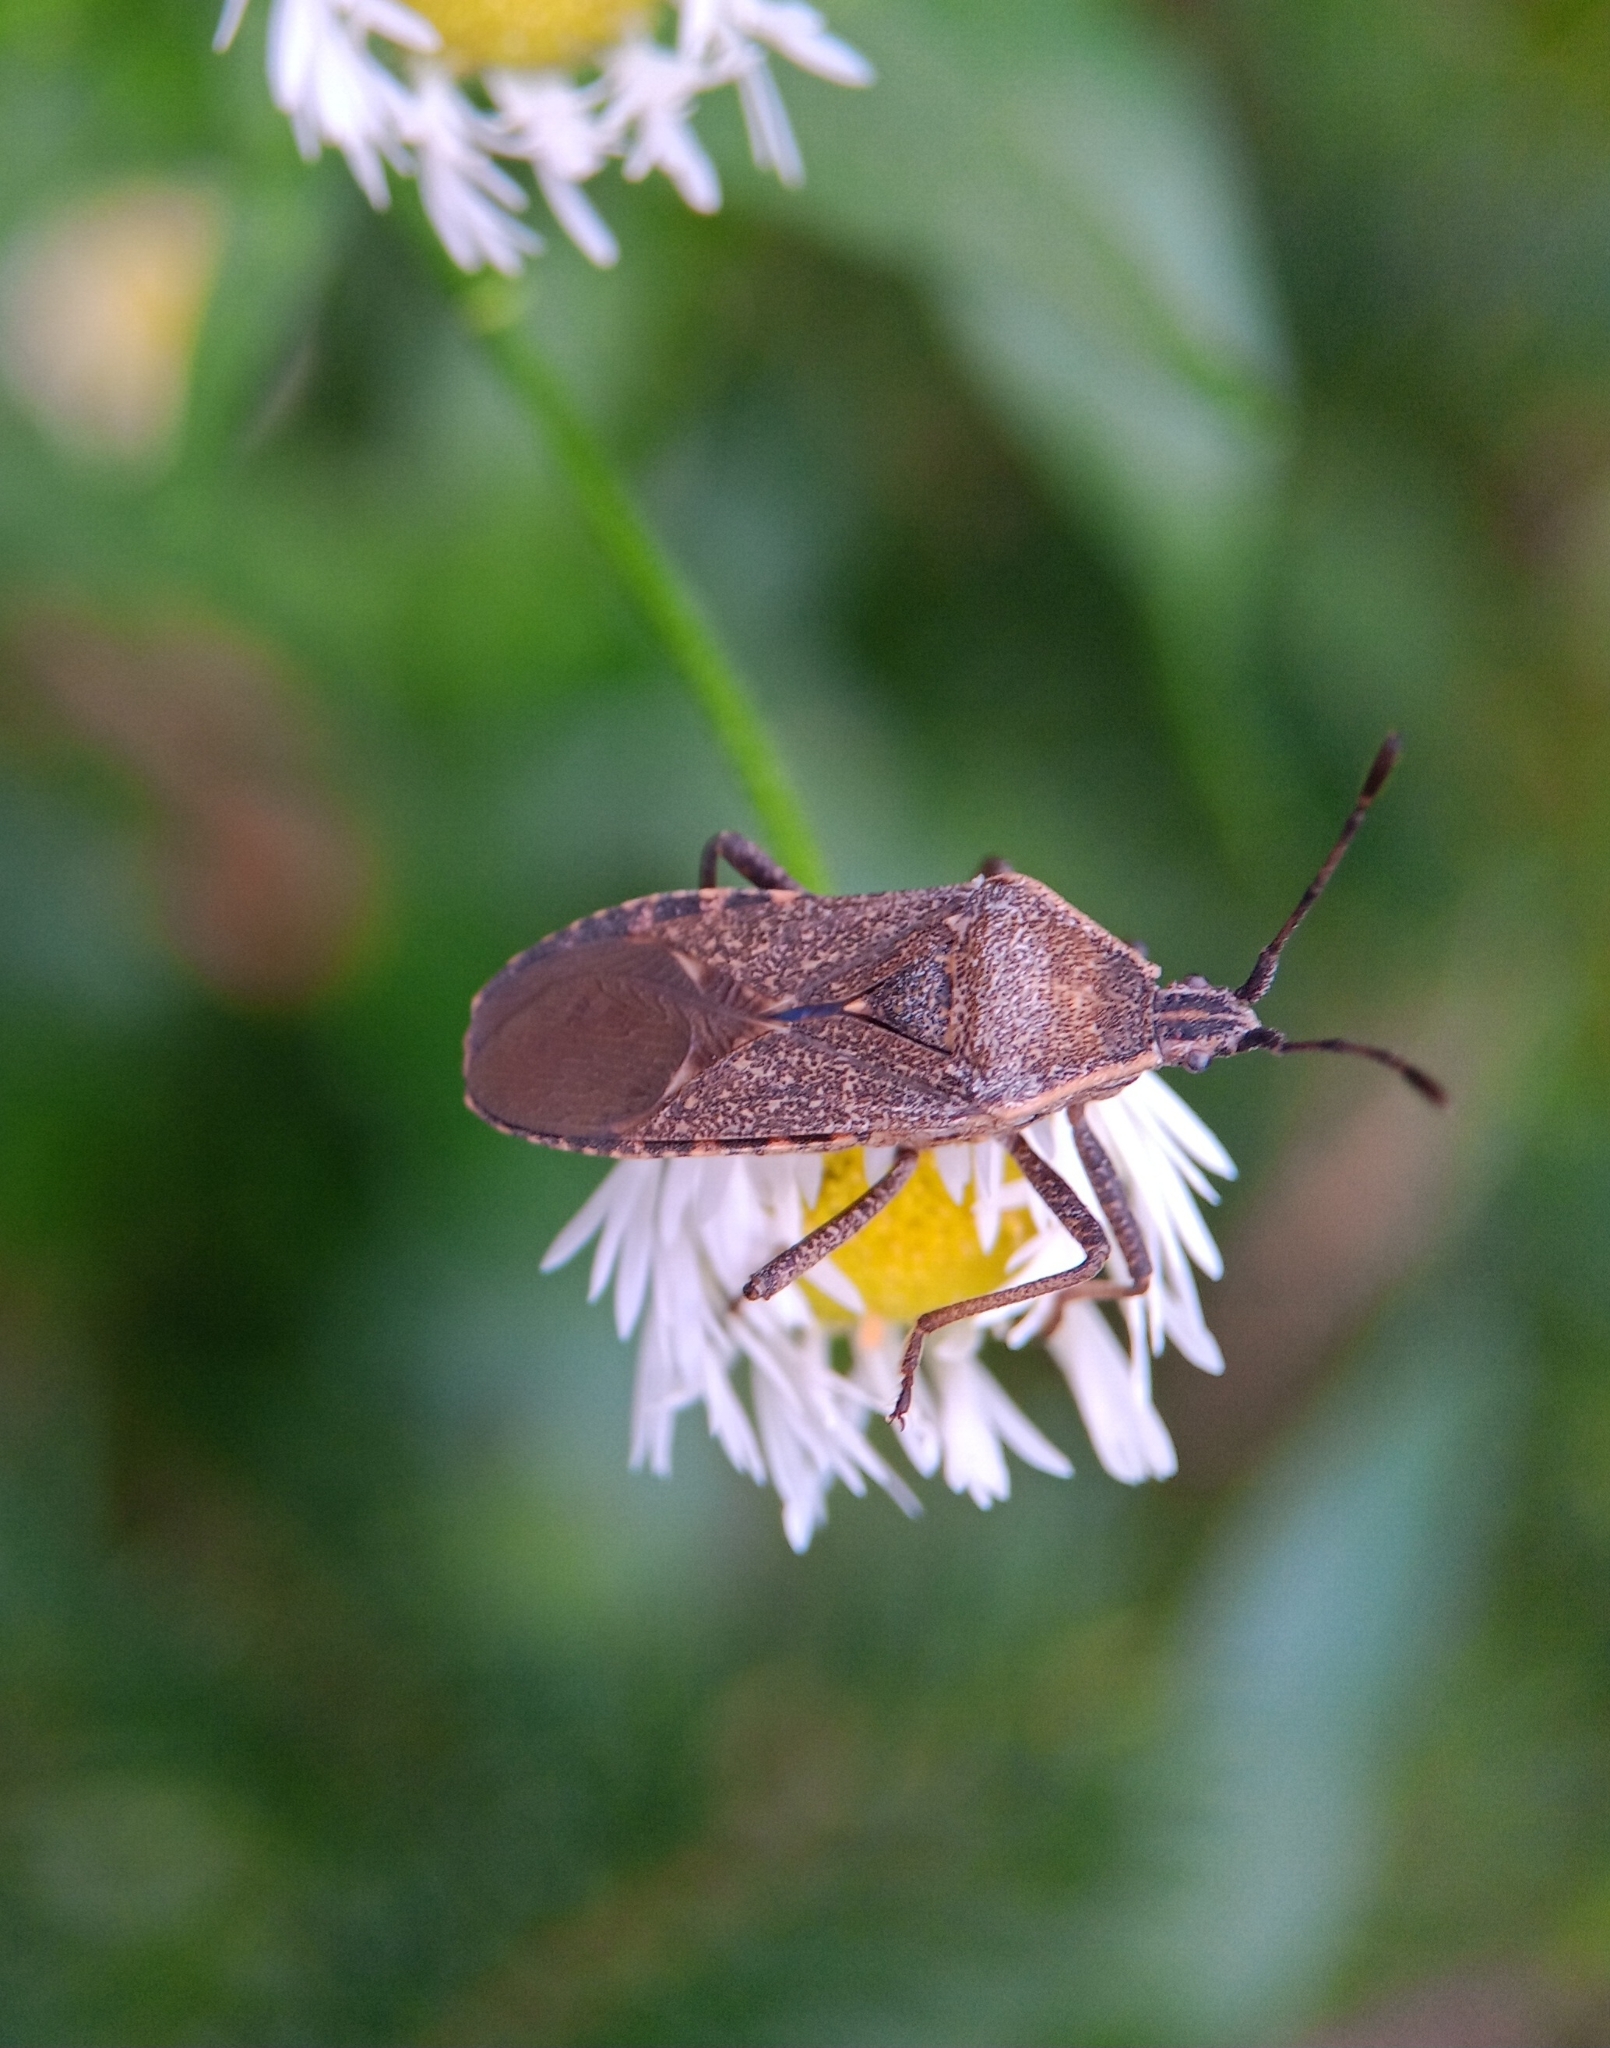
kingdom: Animalia
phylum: Arthropoda
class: Insecta
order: Hemiptera
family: Coreidae
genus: Anasa
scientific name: Anasa tristis
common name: Squash bug
